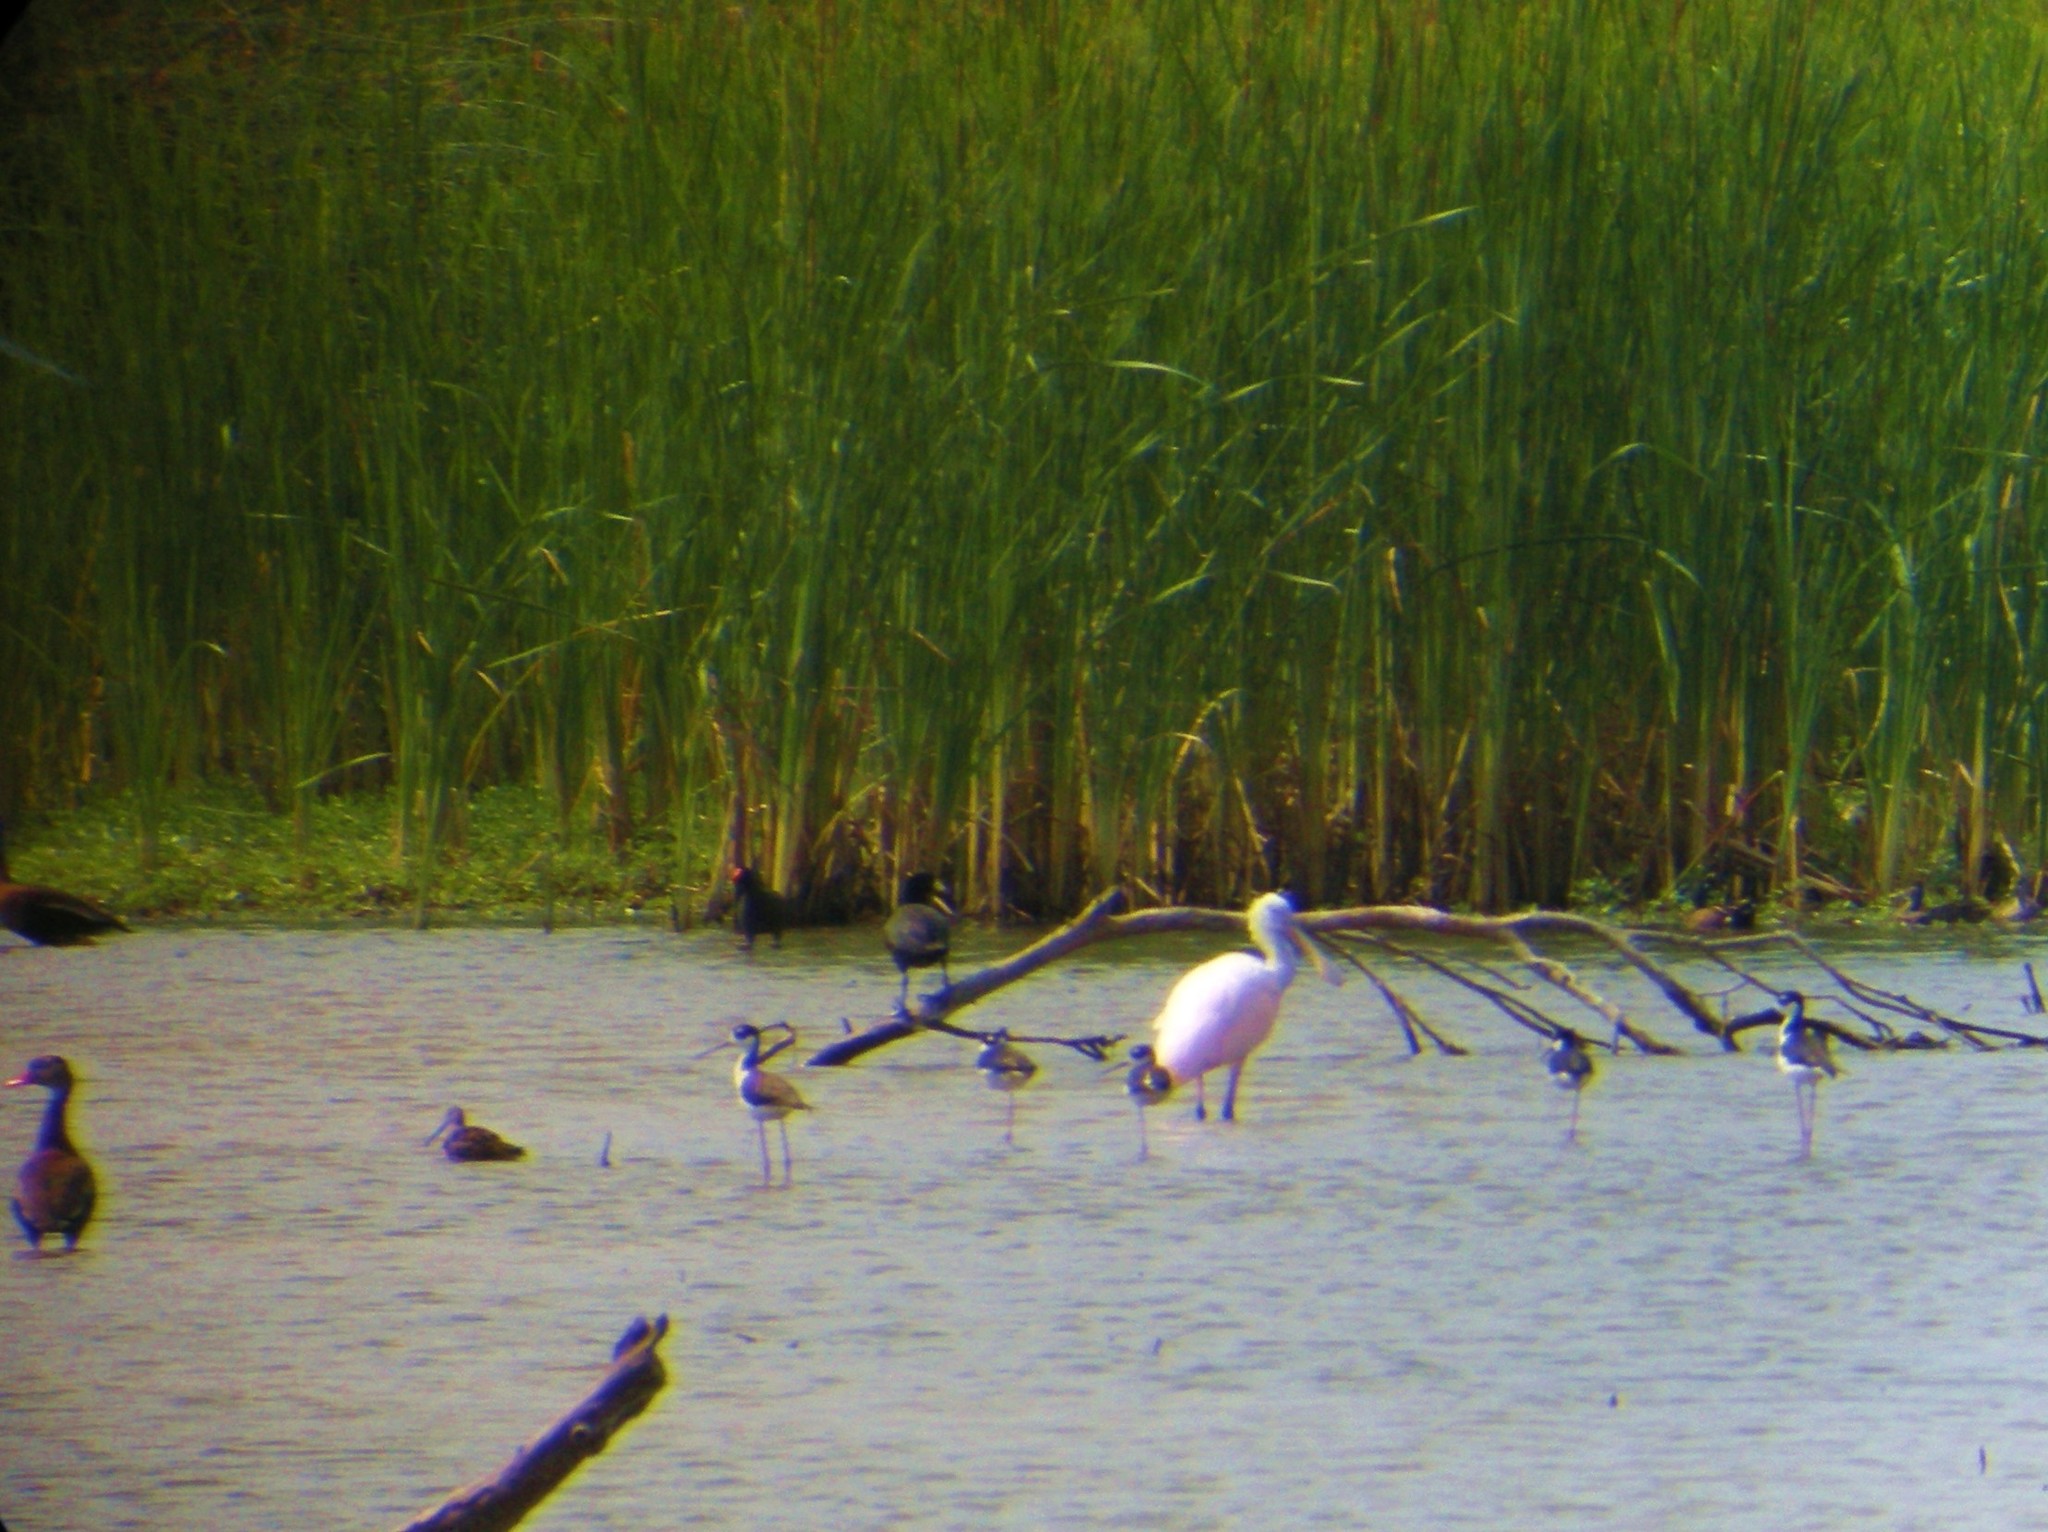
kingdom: Animalia
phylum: Chordata
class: Aves
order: Pelecaniformes
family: Threskiornithidae
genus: Platalea
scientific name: Platalea ajaja
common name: Roseate spoonbill
